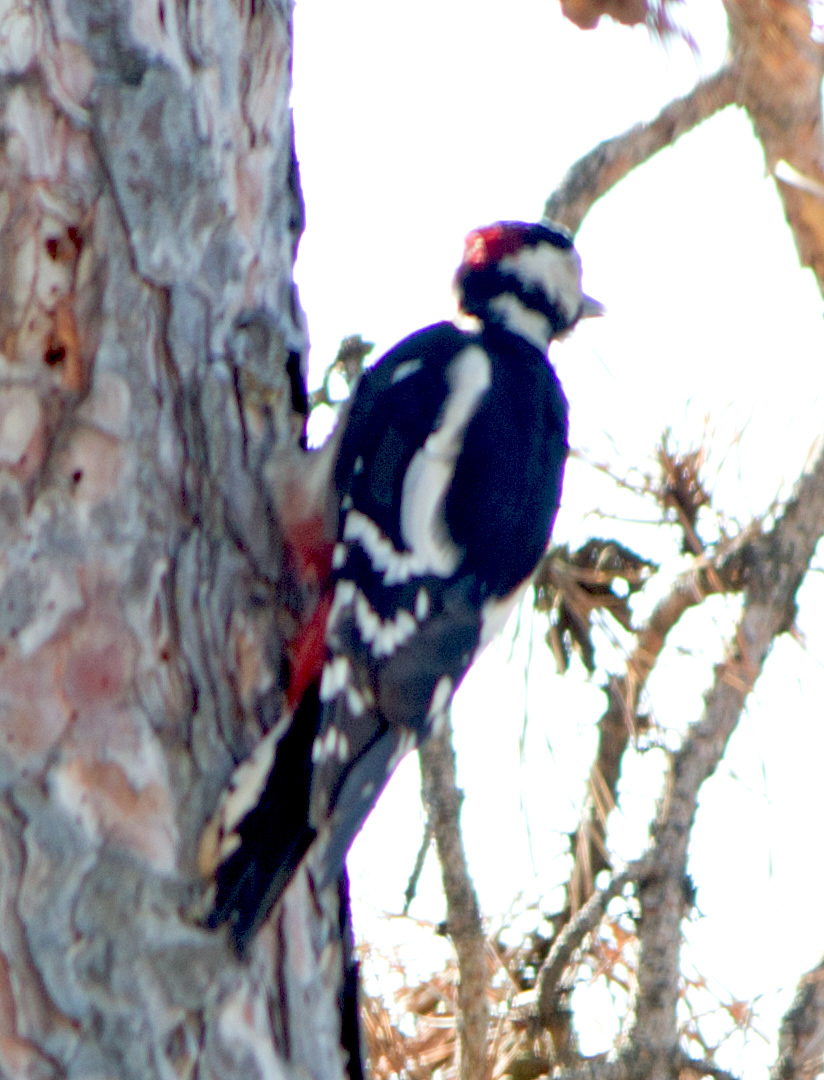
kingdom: Animalia
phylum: Chordata
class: Aves
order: Piciformes
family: Picidae
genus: Dendrocopos
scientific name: Dendrocopos major
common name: Great spotted woodpecker
